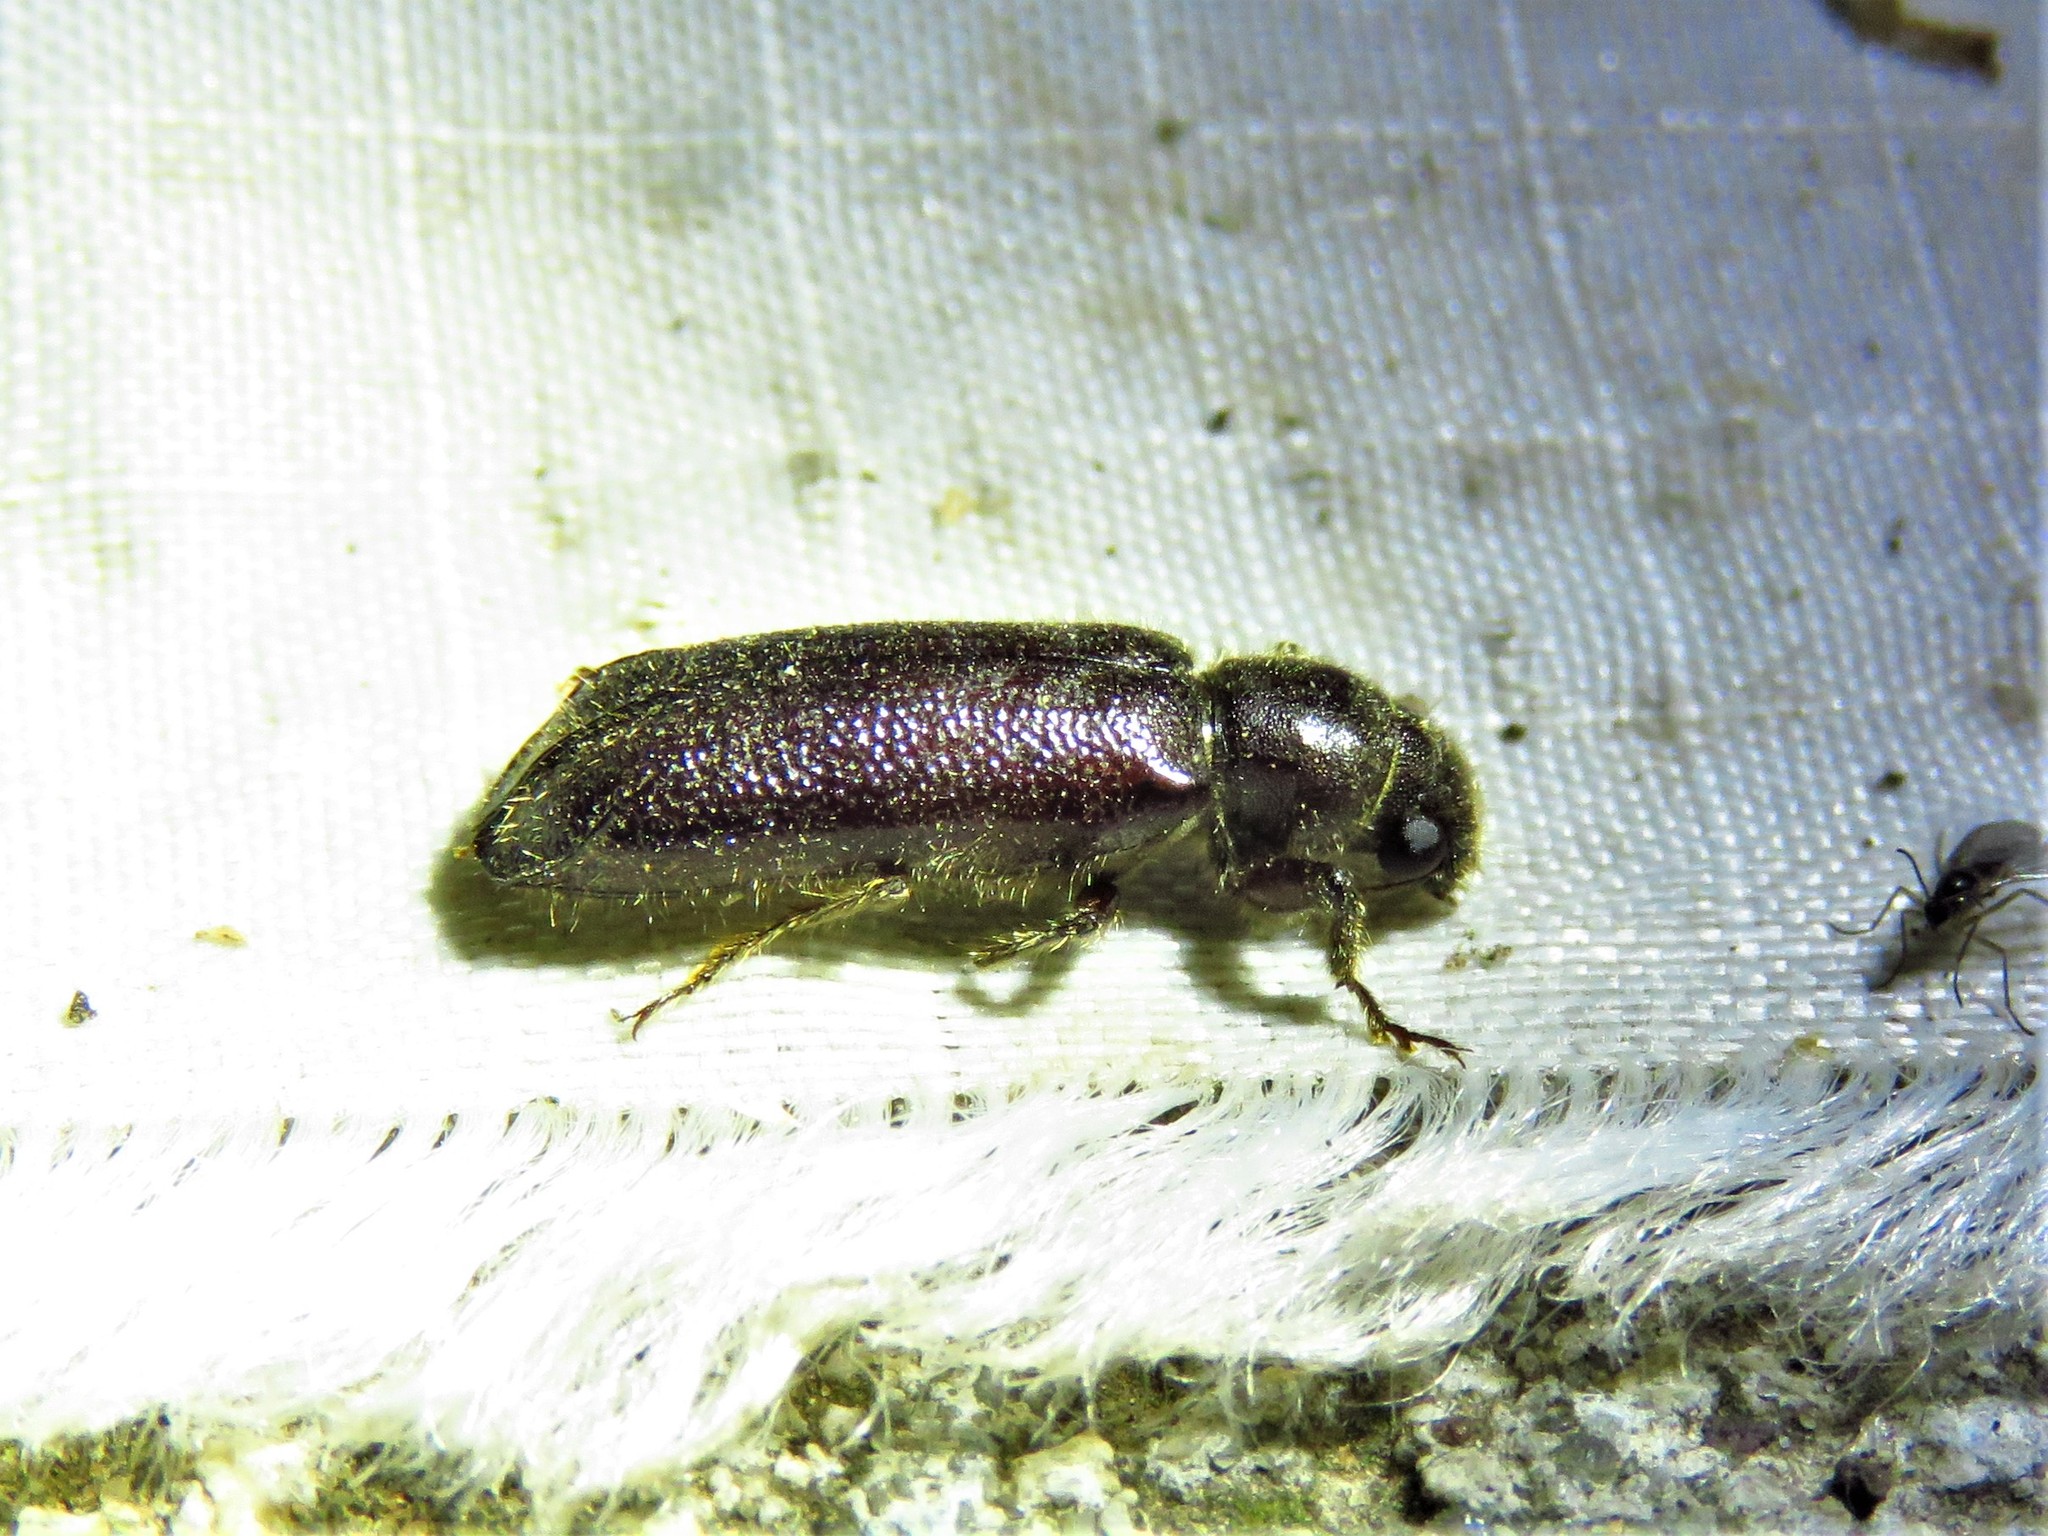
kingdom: Animalia
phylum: Arthropoda
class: Insecta
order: Coleoptera
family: Bostrichidae
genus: Melalgus
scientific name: Melalgus plicatus
